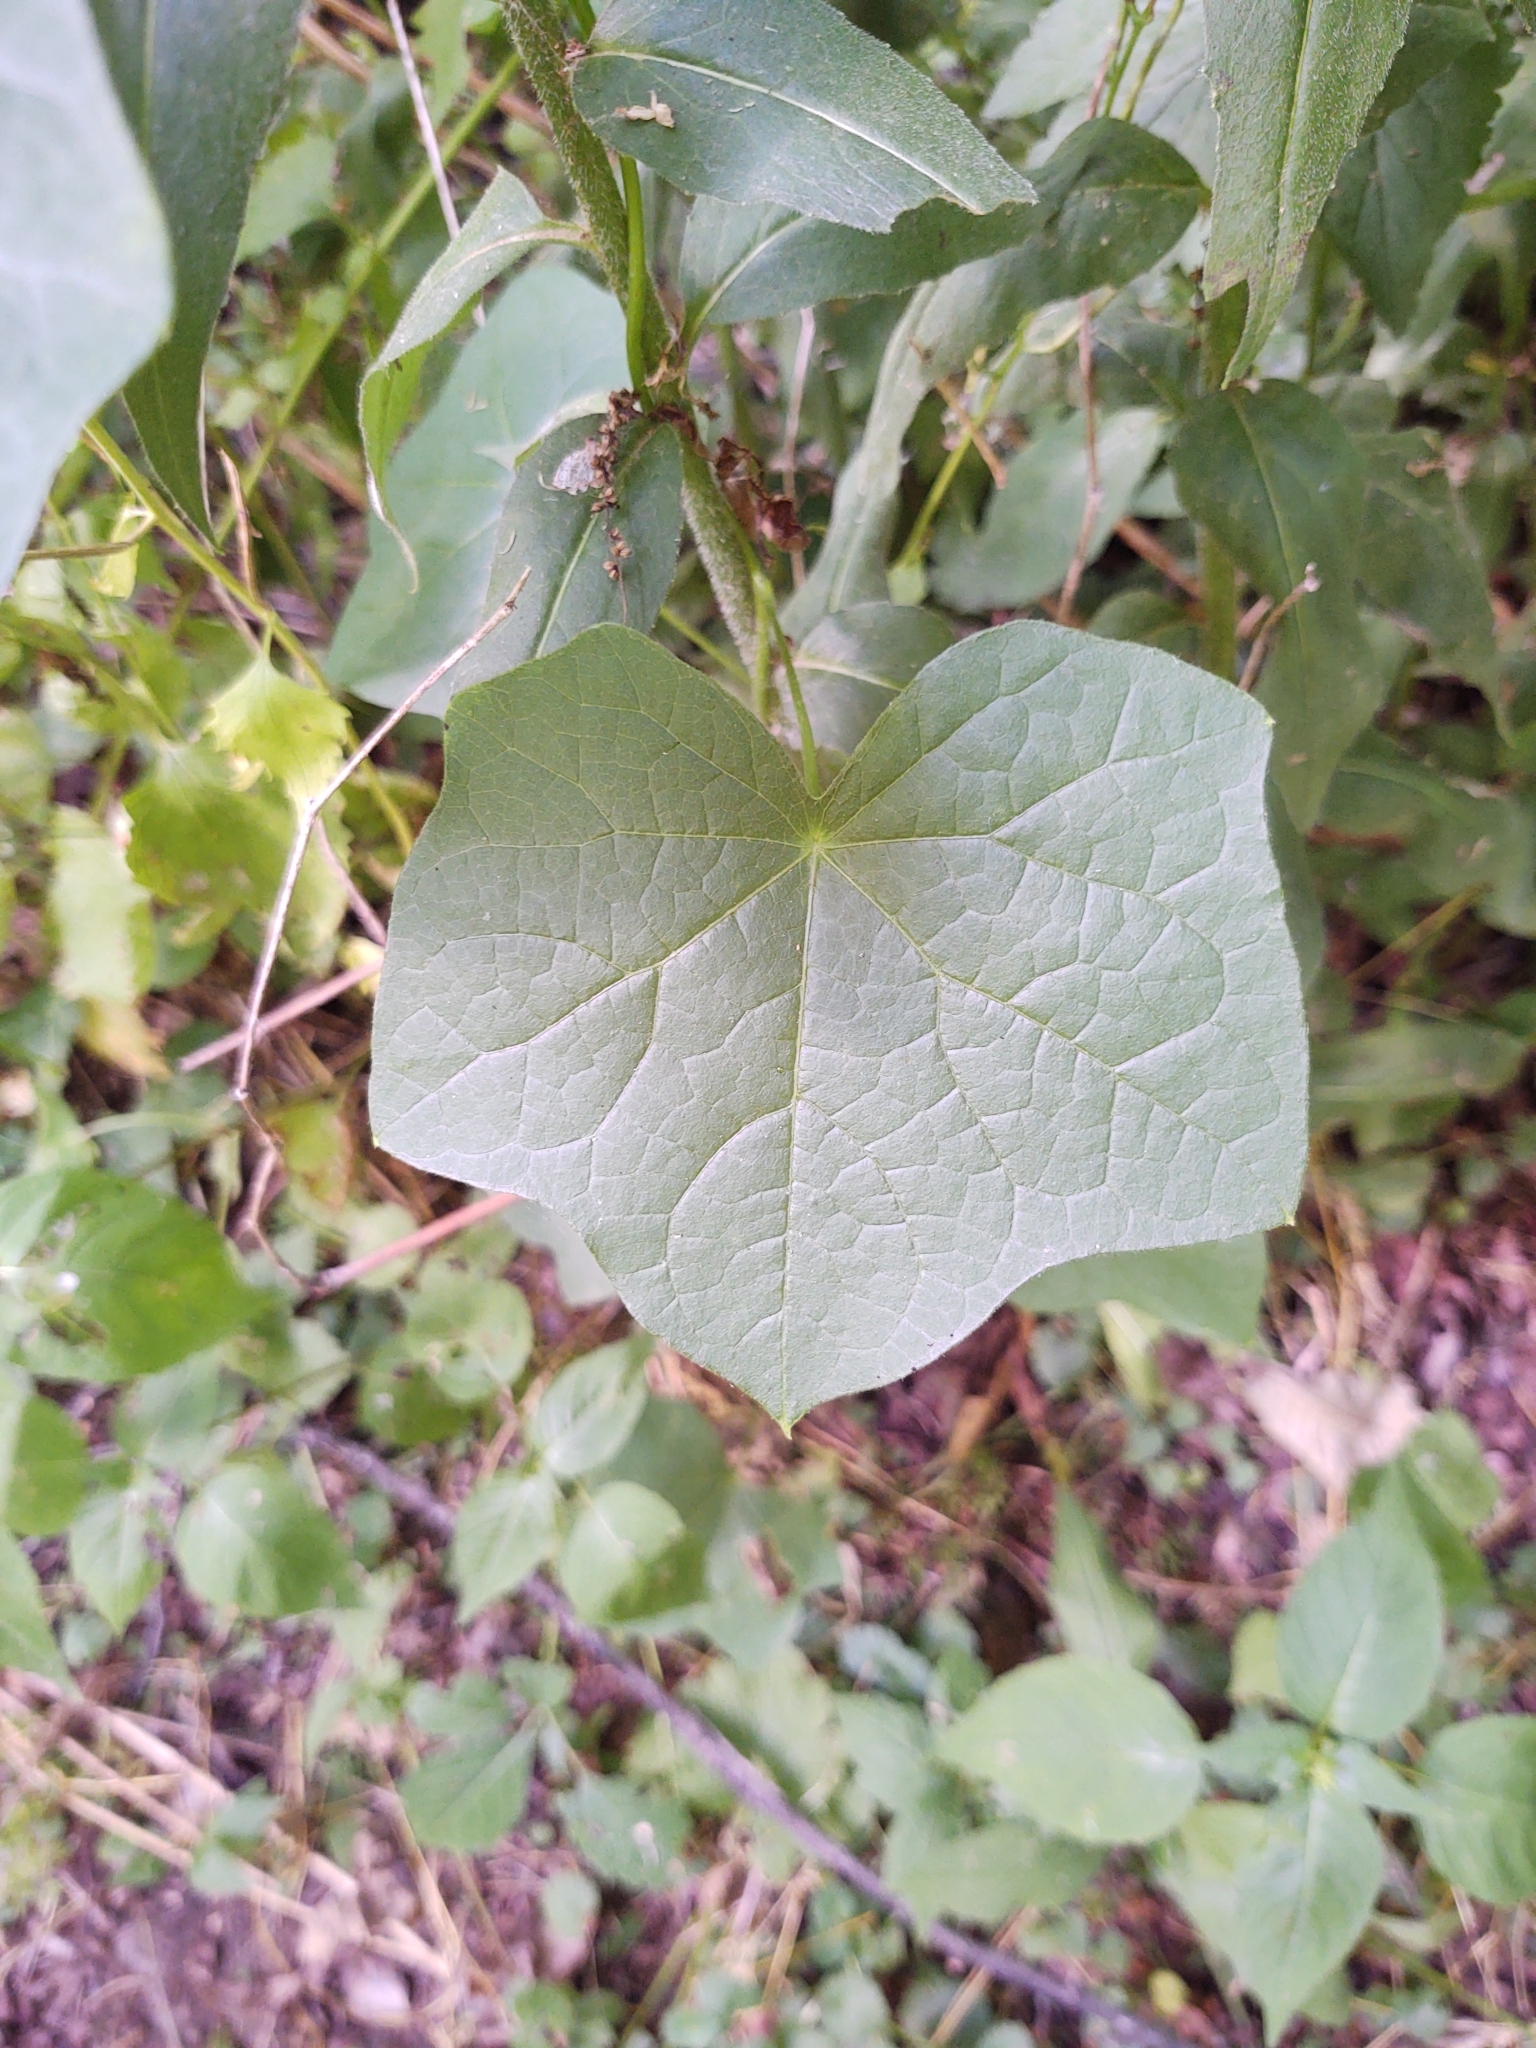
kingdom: Plantae
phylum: Tracheophyta
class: Magnoliopsida
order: Ranunculales
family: Menispermaceae
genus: Menispermum
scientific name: Menispermum canadense
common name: Moonseed
